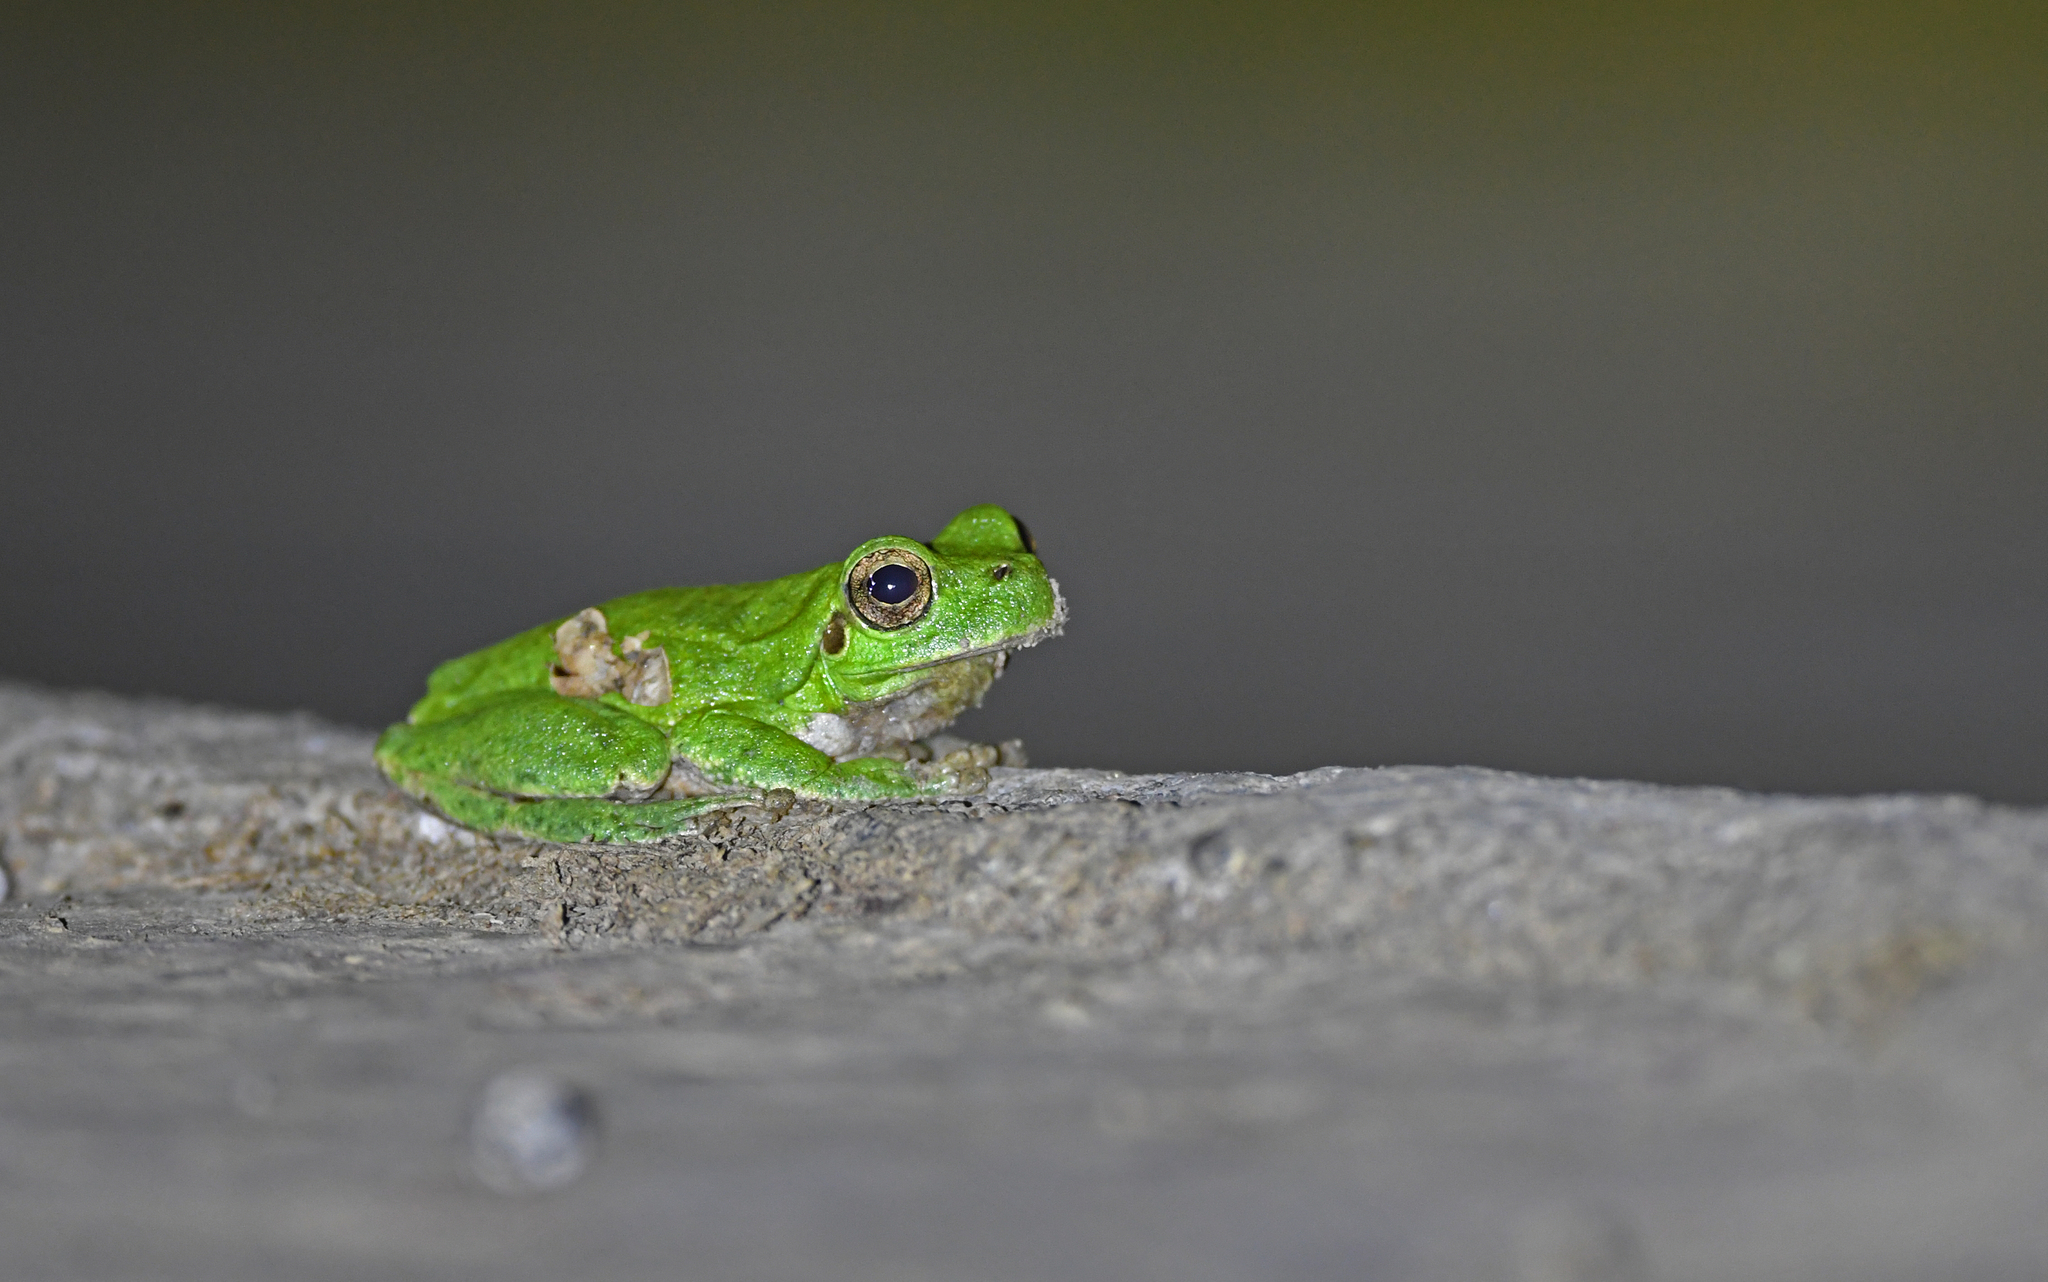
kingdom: Animalia
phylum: Chordata
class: Amphibia
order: Anura
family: Hylidae
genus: Hyla
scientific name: Hyla sarda
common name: Sardinian tree frog
